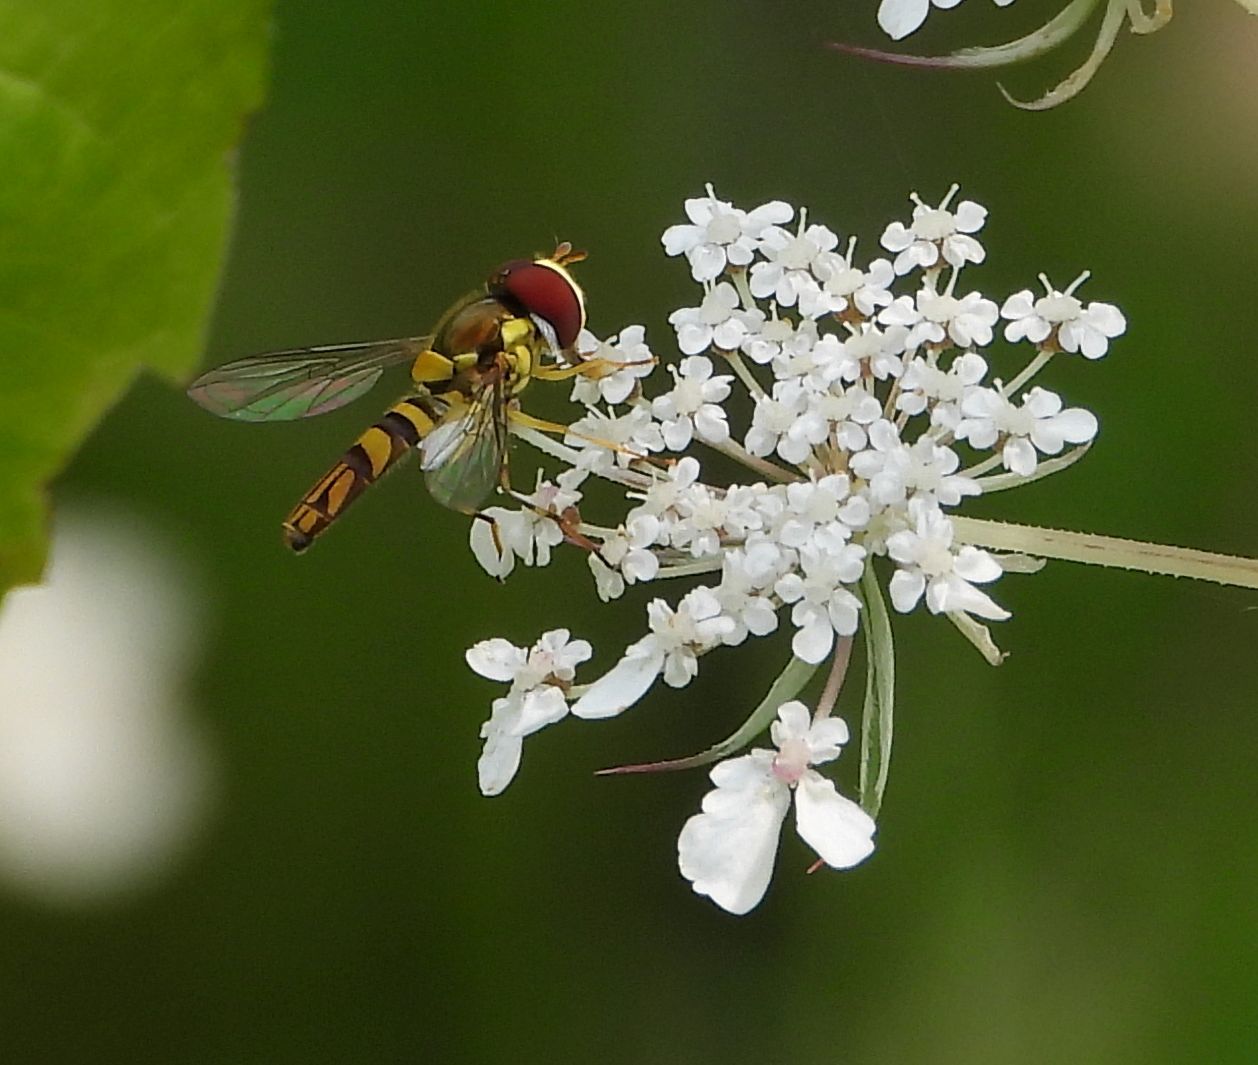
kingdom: Animalia
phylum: Arthropoda
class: Insecta
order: Diptera
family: Syrphidae
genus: Allograpta
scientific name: Allograpta obliqua
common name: Common oblique syrphid
